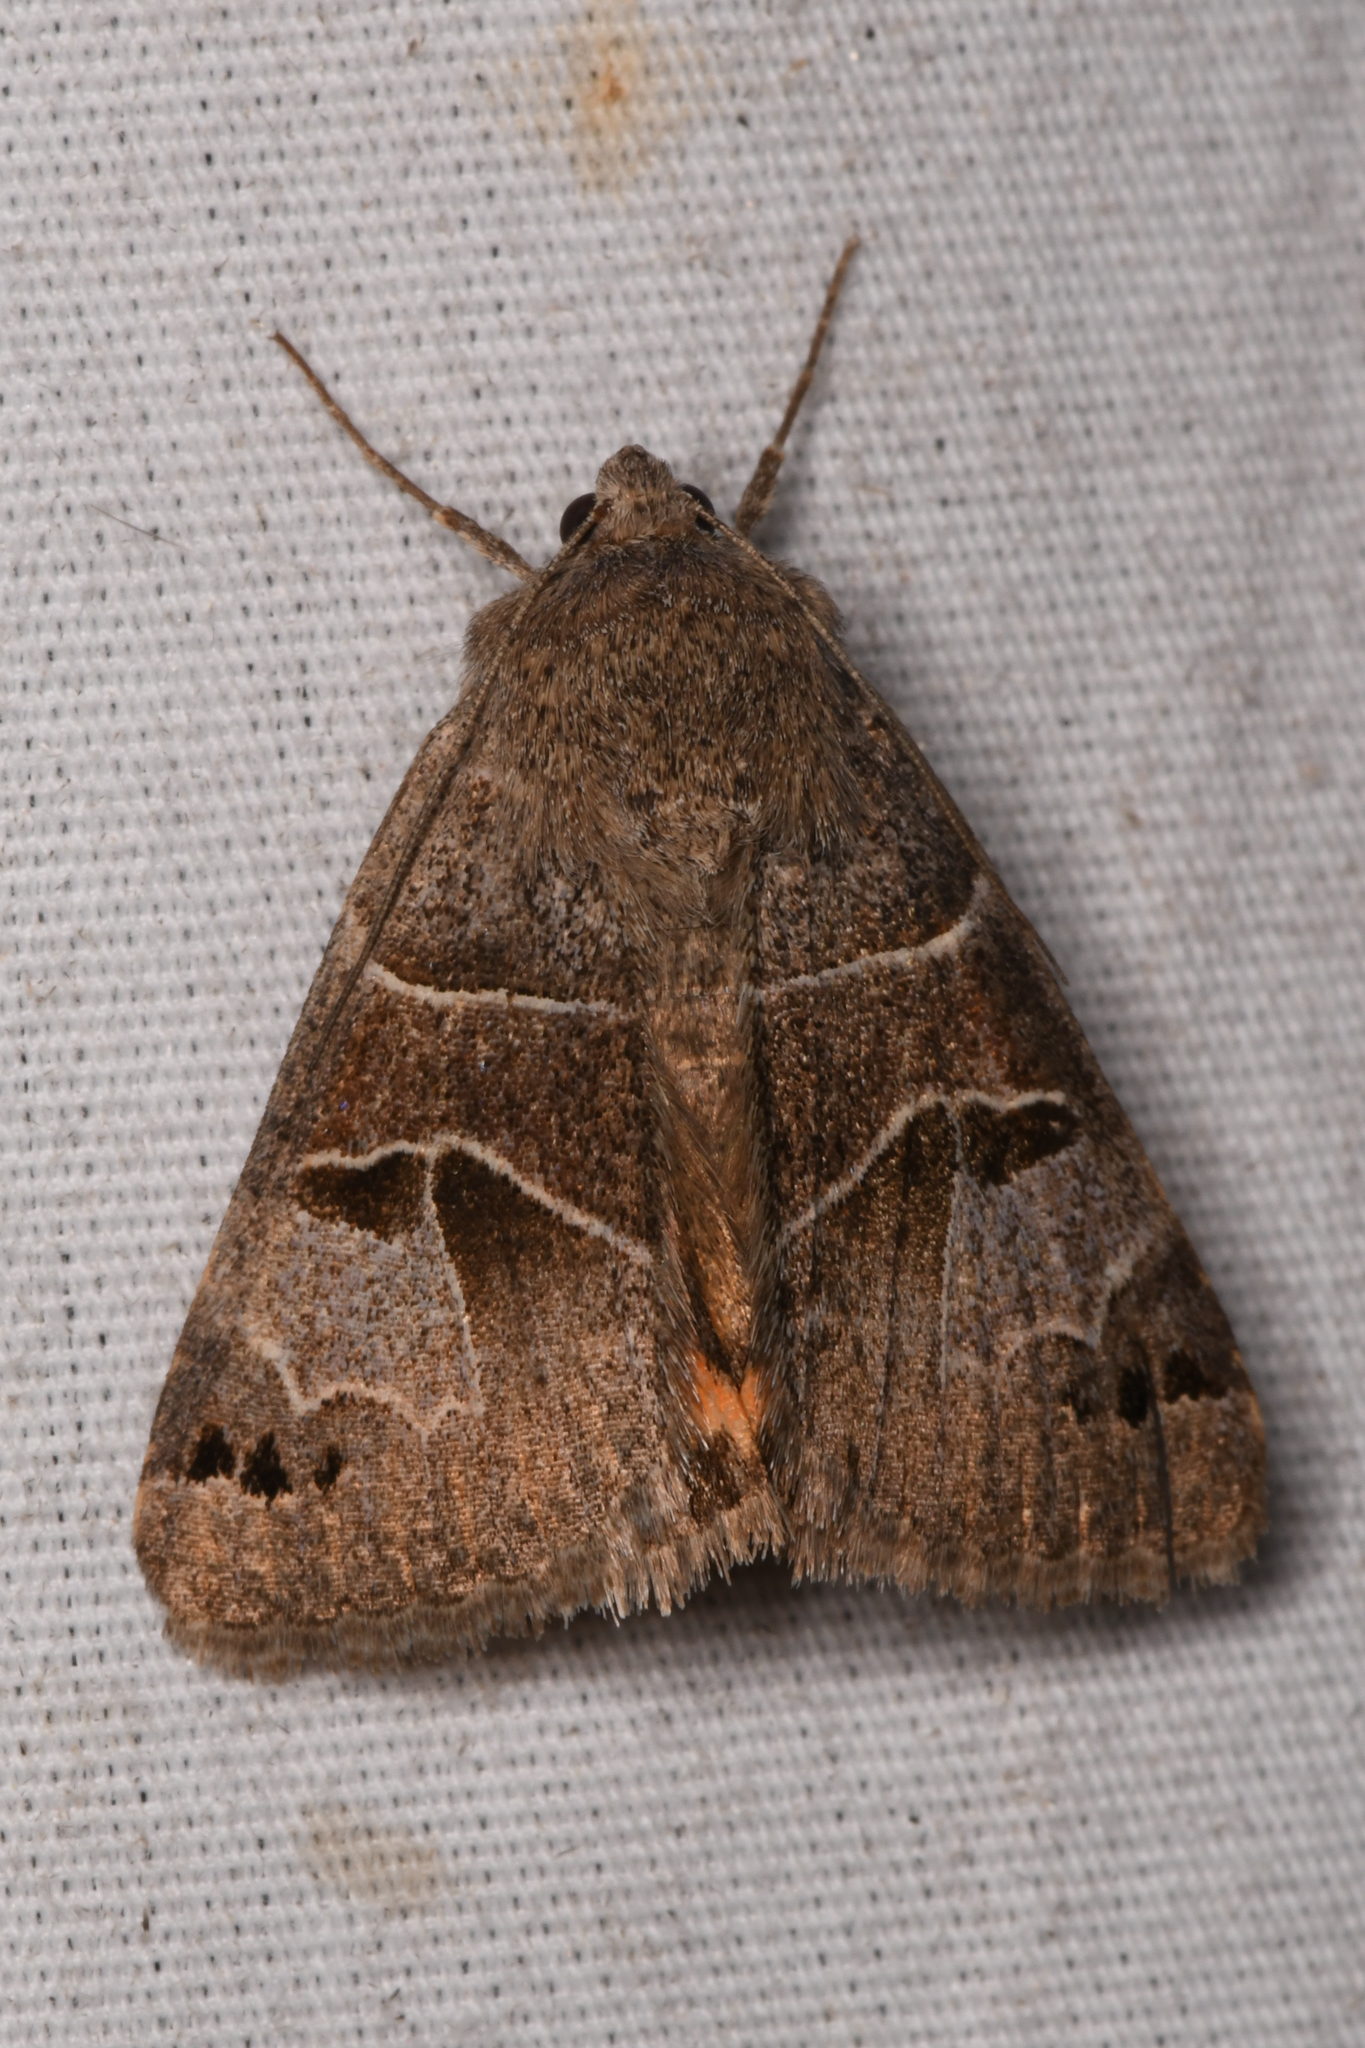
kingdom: Animalia
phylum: Arthropoda
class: Insecta
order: Lepidoptera
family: Erebidae
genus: Drasteria
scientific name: Drasteria edwardsii
